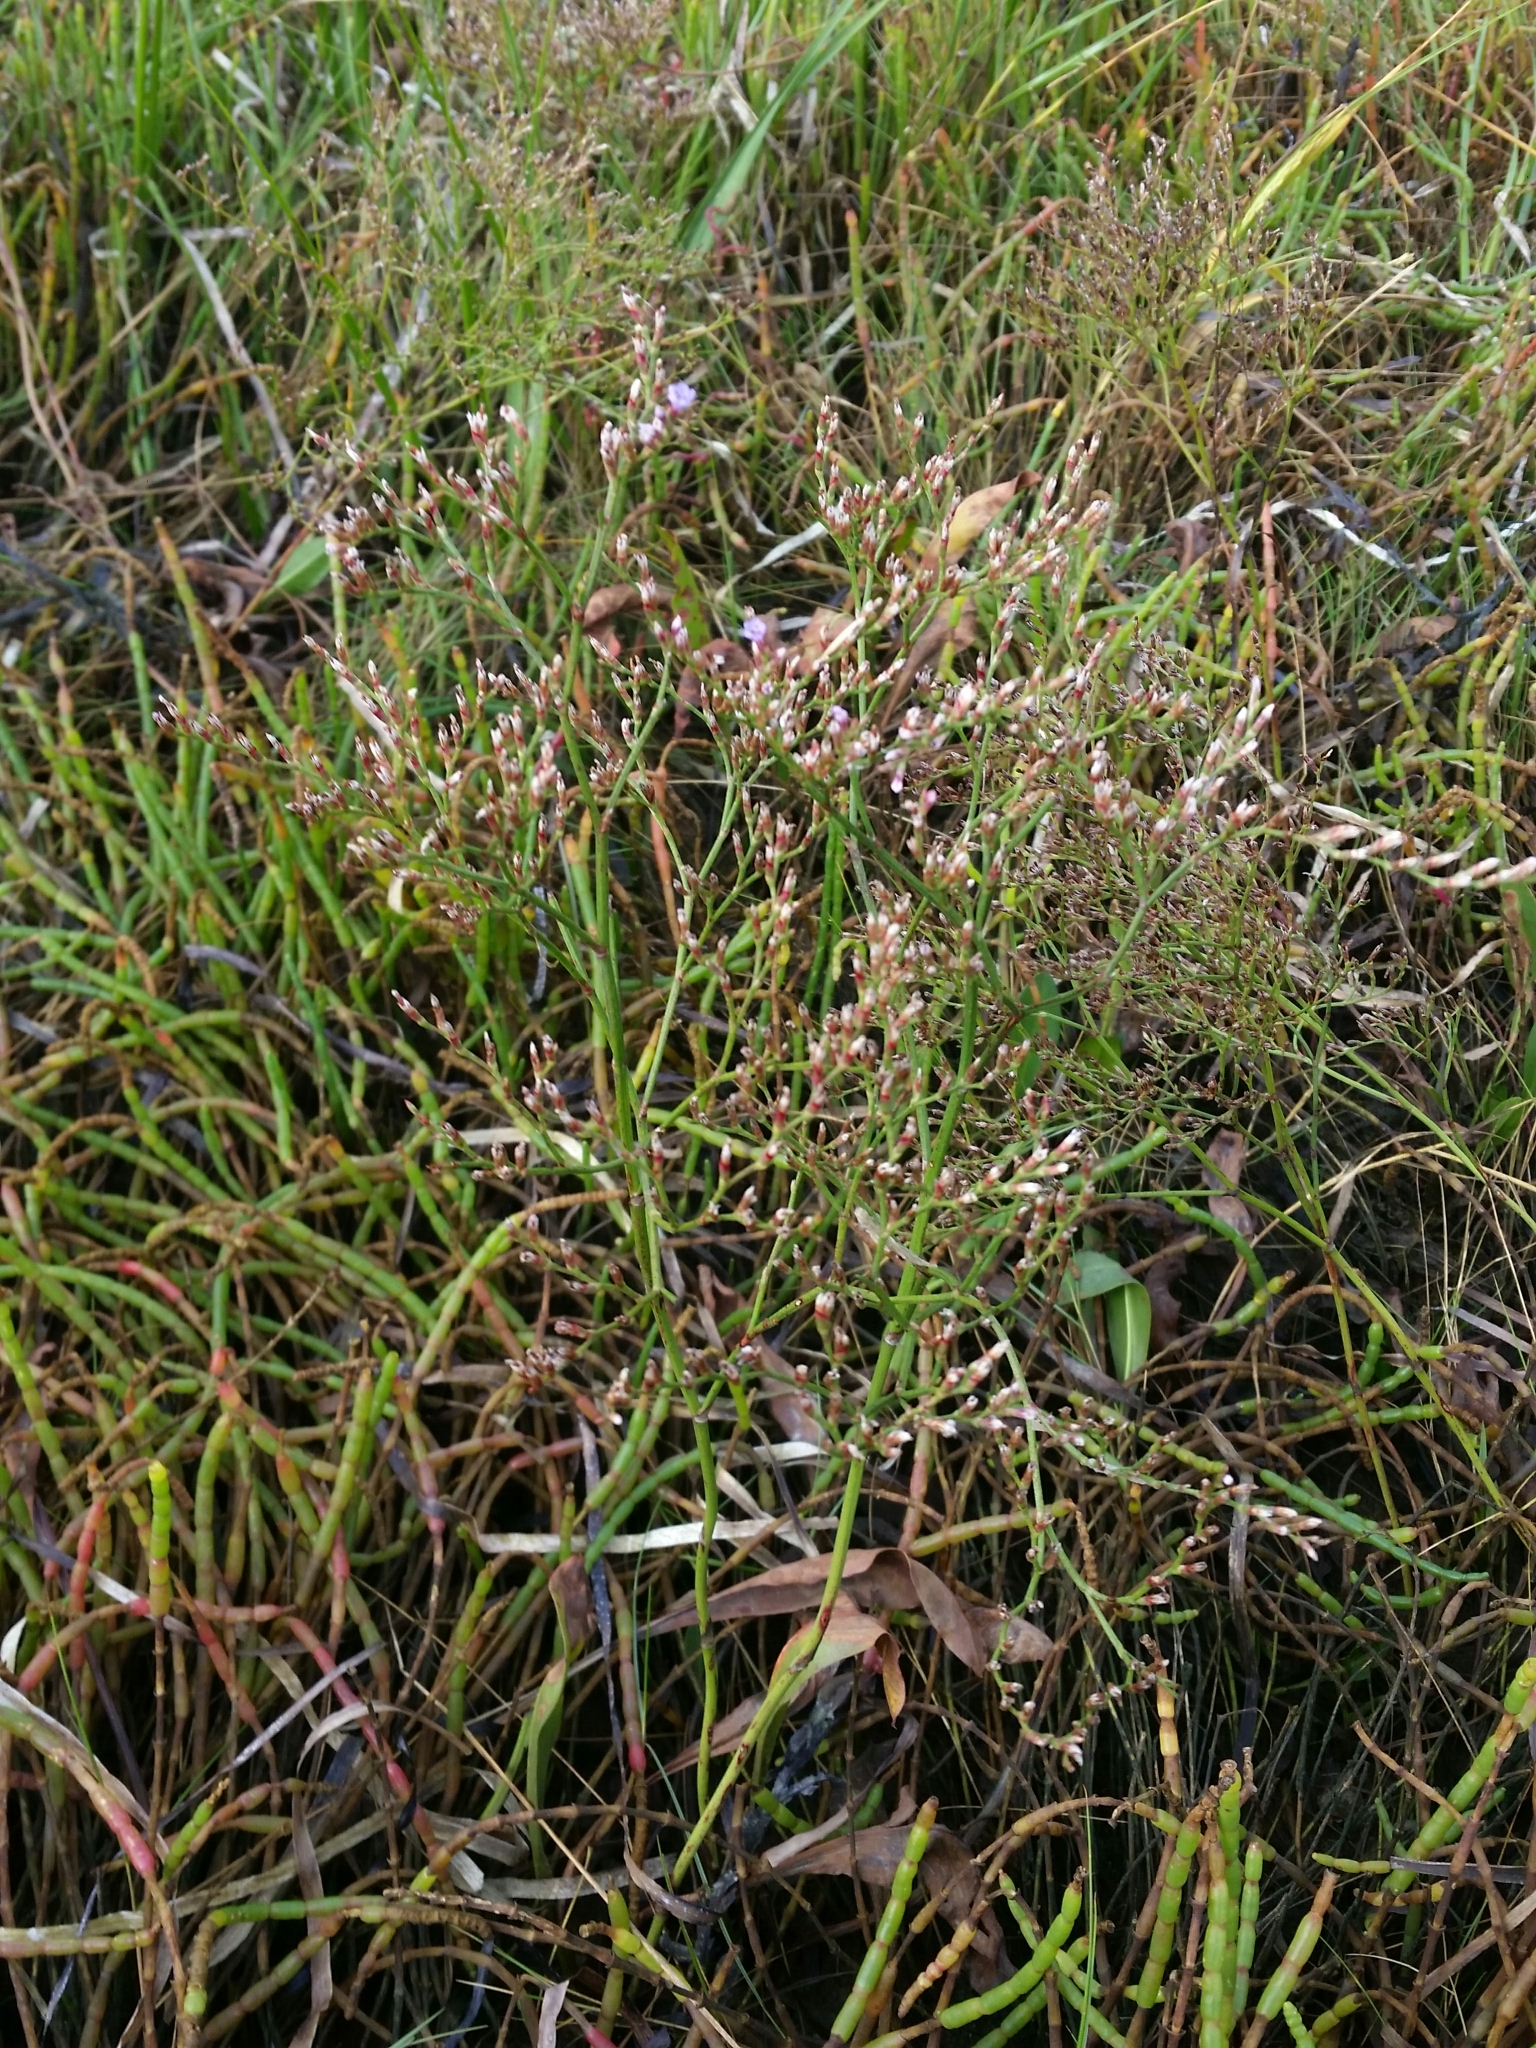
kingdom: Plantae
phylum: Tracheophyta
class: Magnoliopsida
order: Caryophyllales
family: Plumbaginaceae
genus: Limonium
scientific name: Limonium carolinianum
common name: Carolina sea lavender
